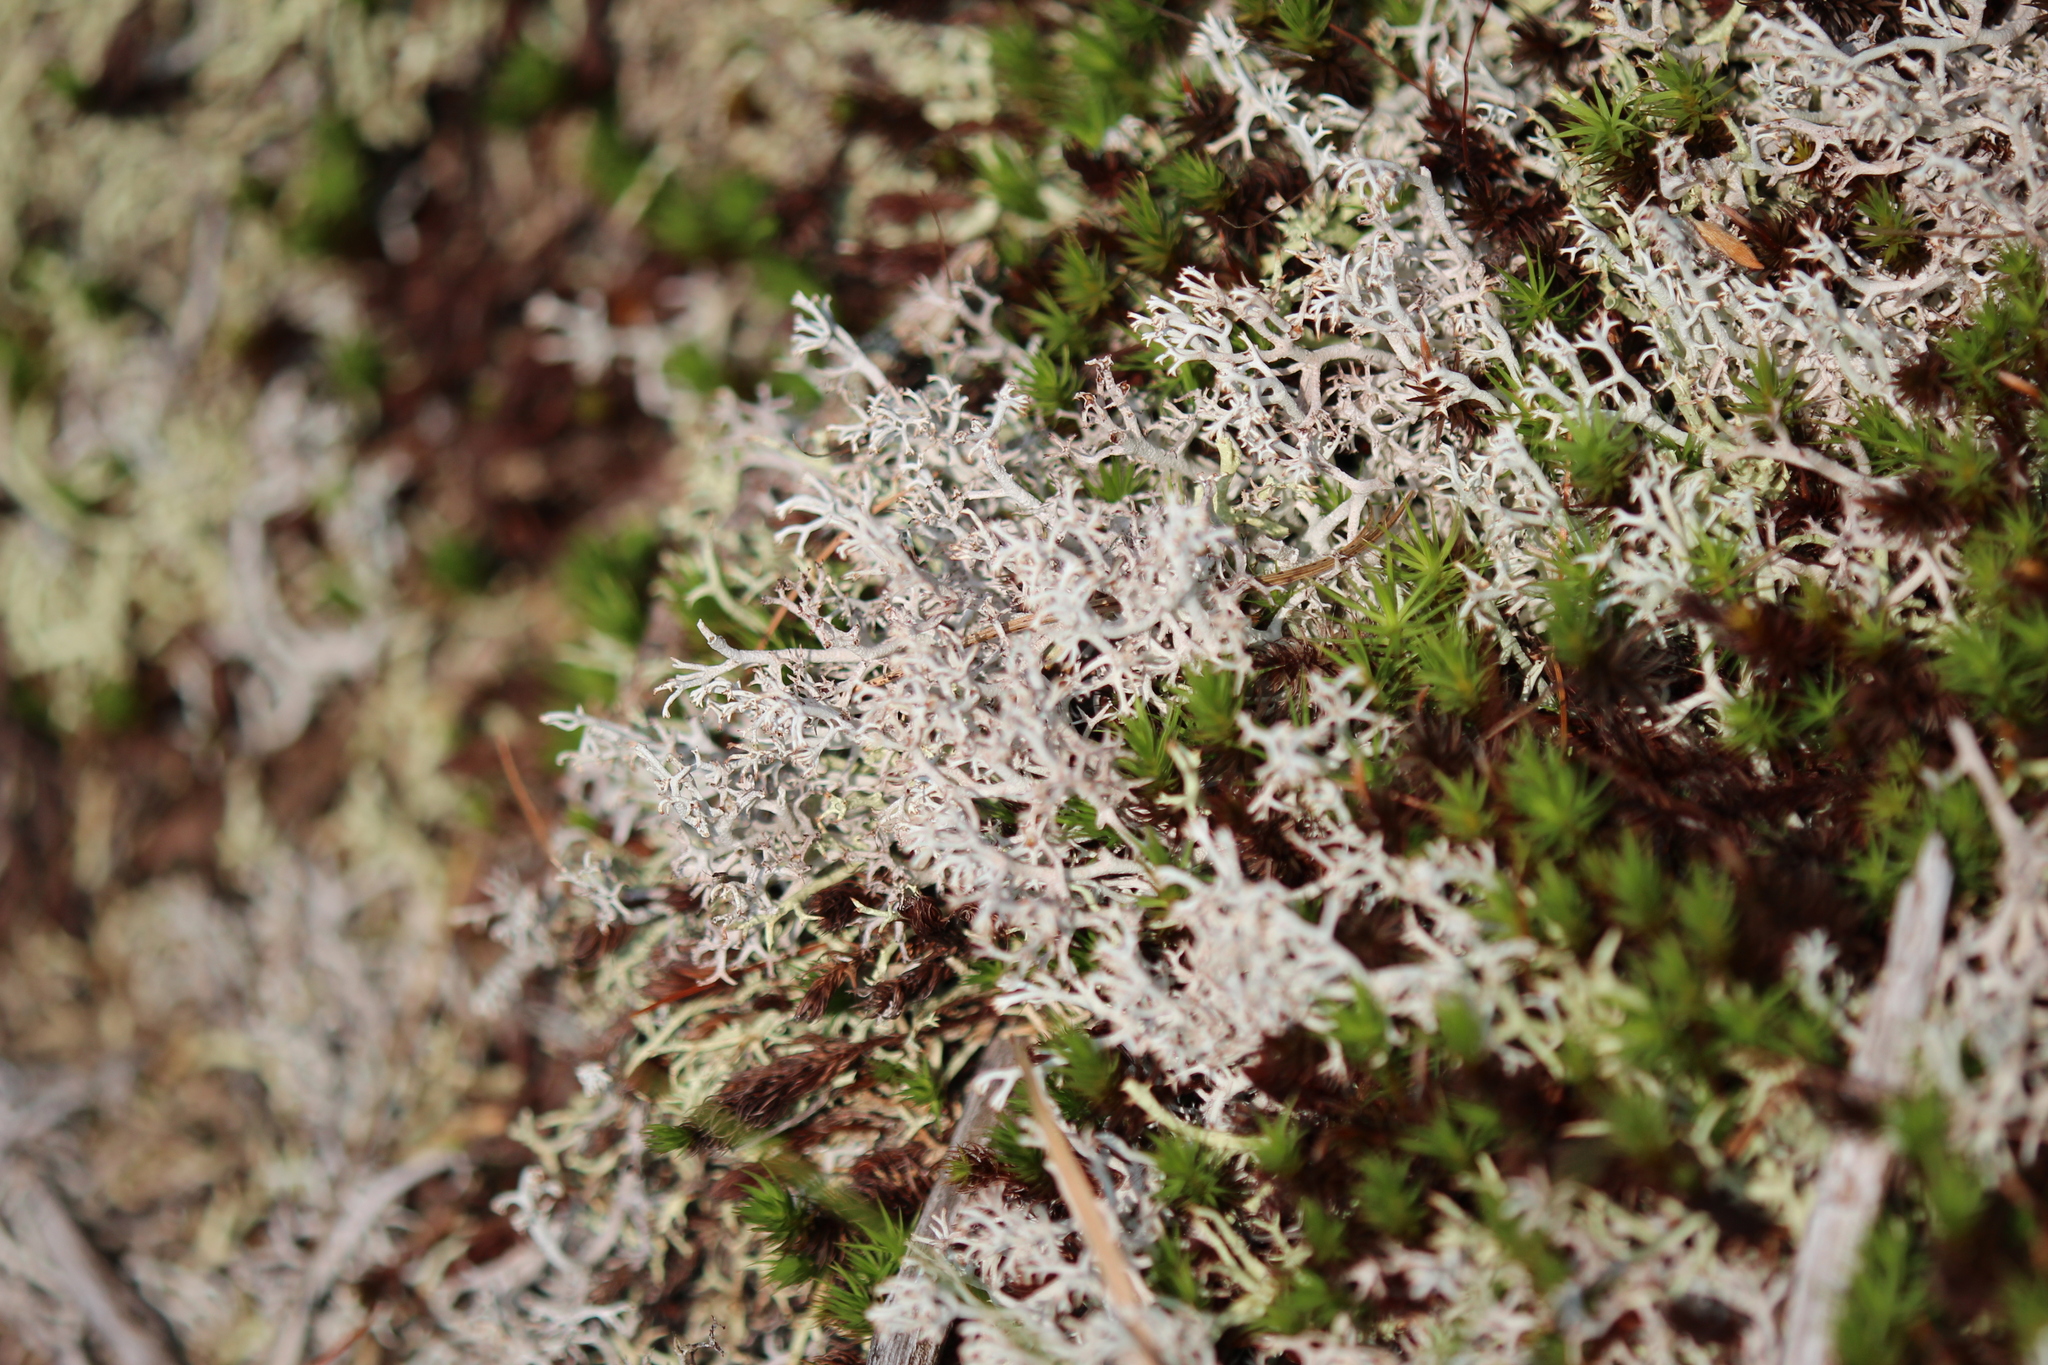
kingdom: Fungi
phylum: Ascomycota
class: Lecanoromycetes
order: Lecanorales
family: Cladoniaceae
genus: Cladonia
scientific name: Cladonia rangiferina
